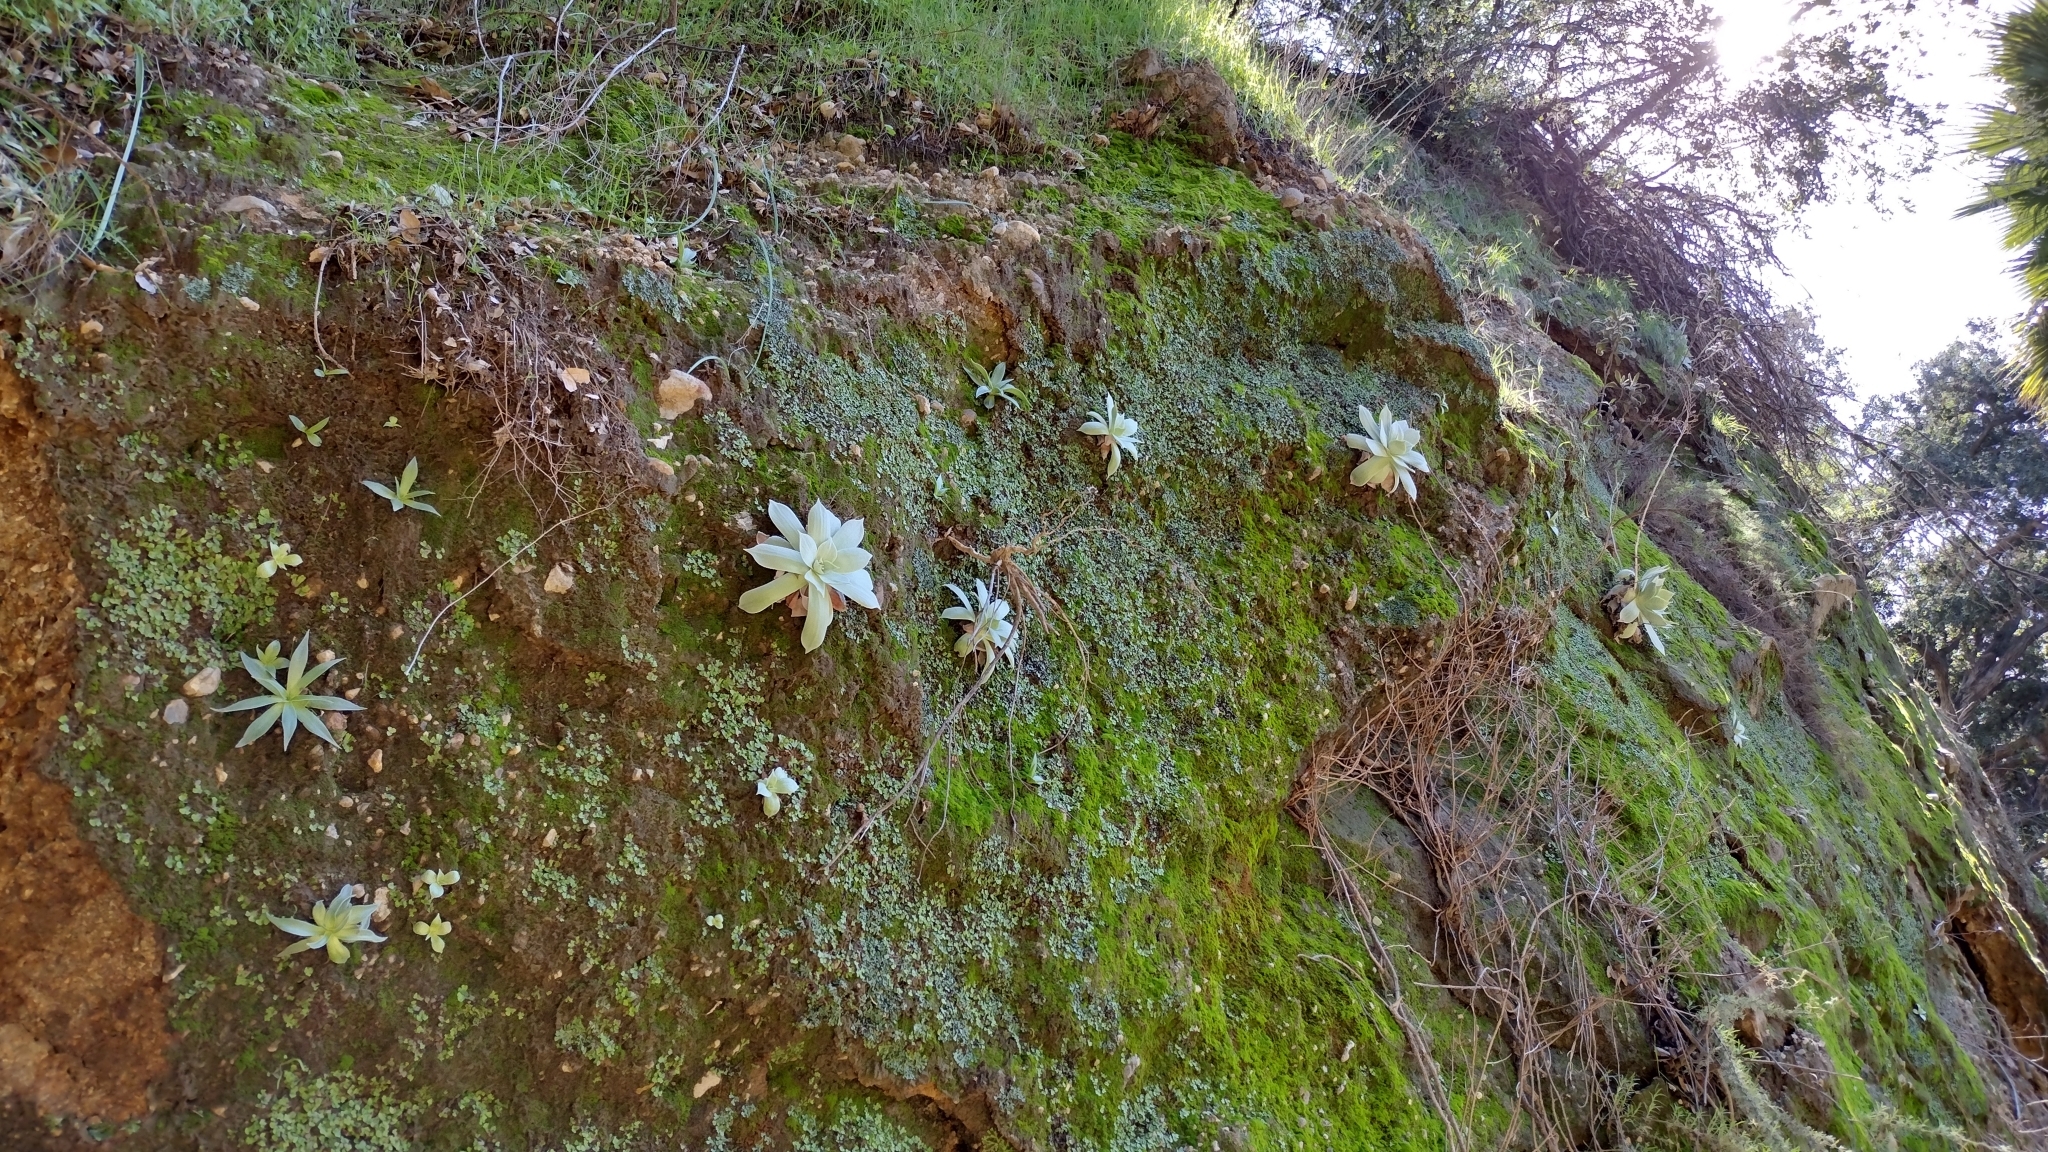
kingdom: Plantae
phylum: Tracheophyta
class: Magnoliopsida
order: Saxifragales
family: Crassulaceae
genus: Dudleya
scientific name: Dudleya pulverulenta
